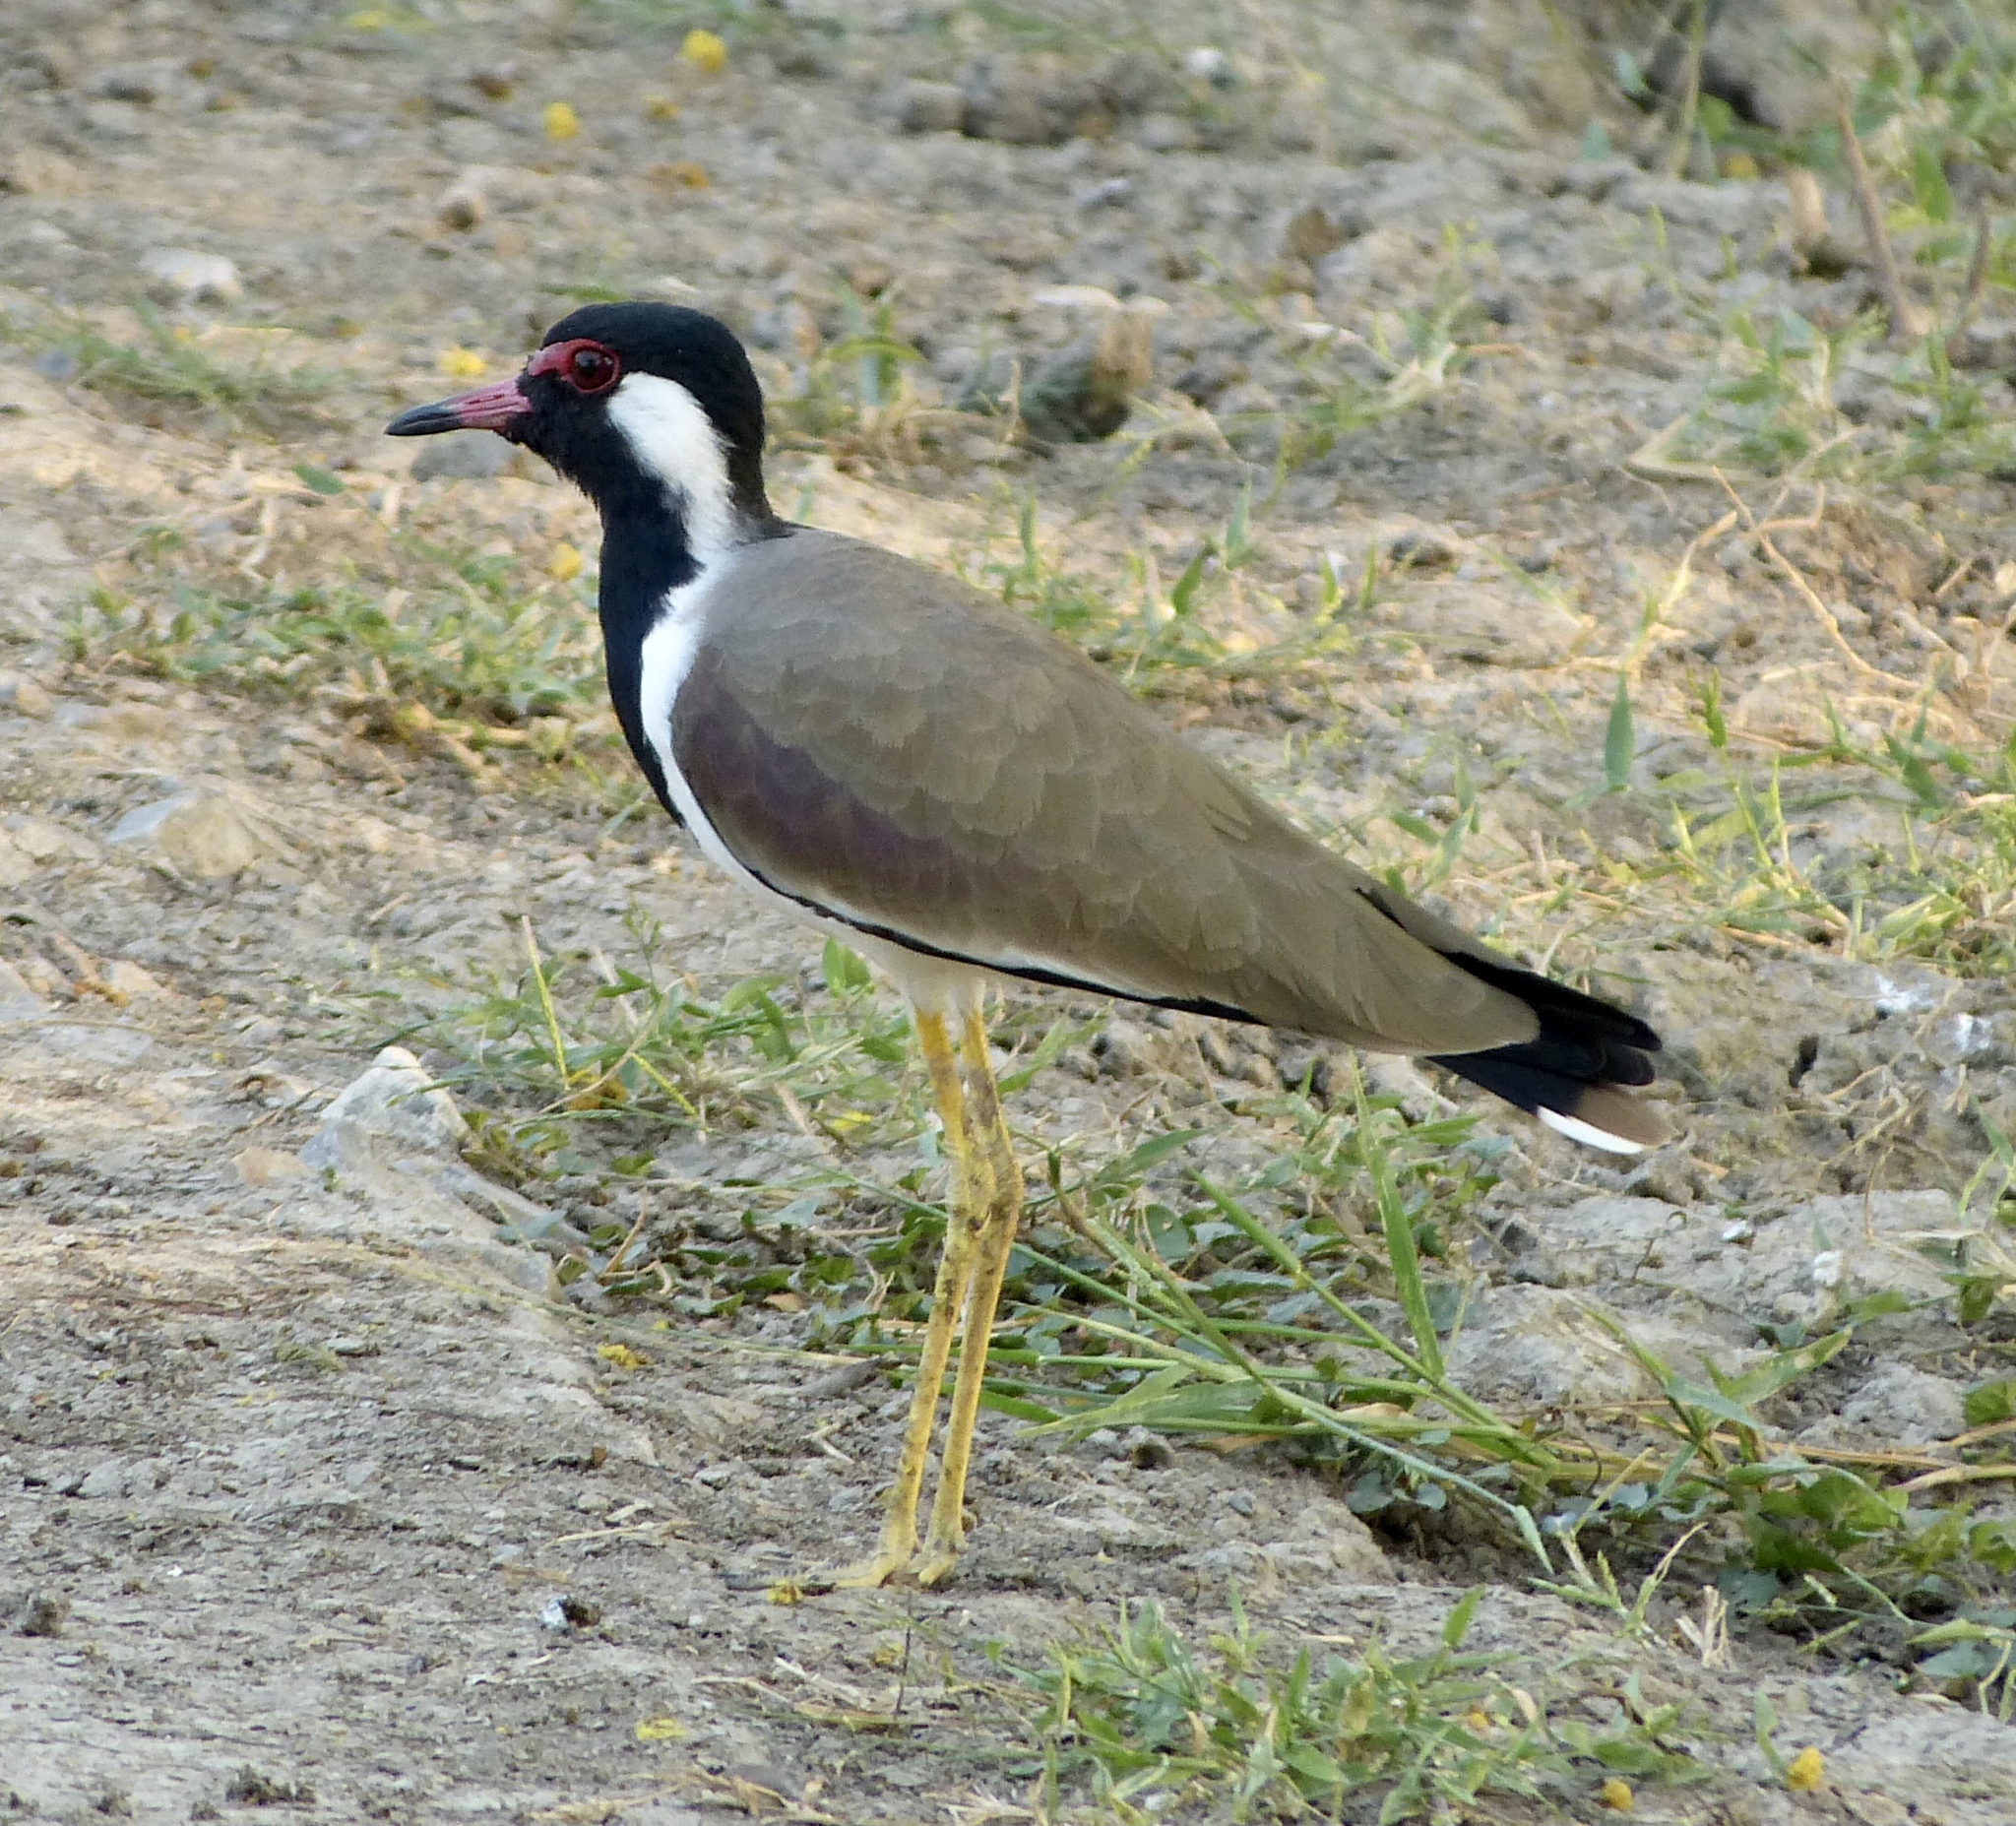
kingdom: Animalia
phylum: Chordata
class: Aves
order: Charadriiformes
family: Charadriidae
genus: Vanellus
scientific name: Vanellus indicus
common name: Red-wattled lapwing
